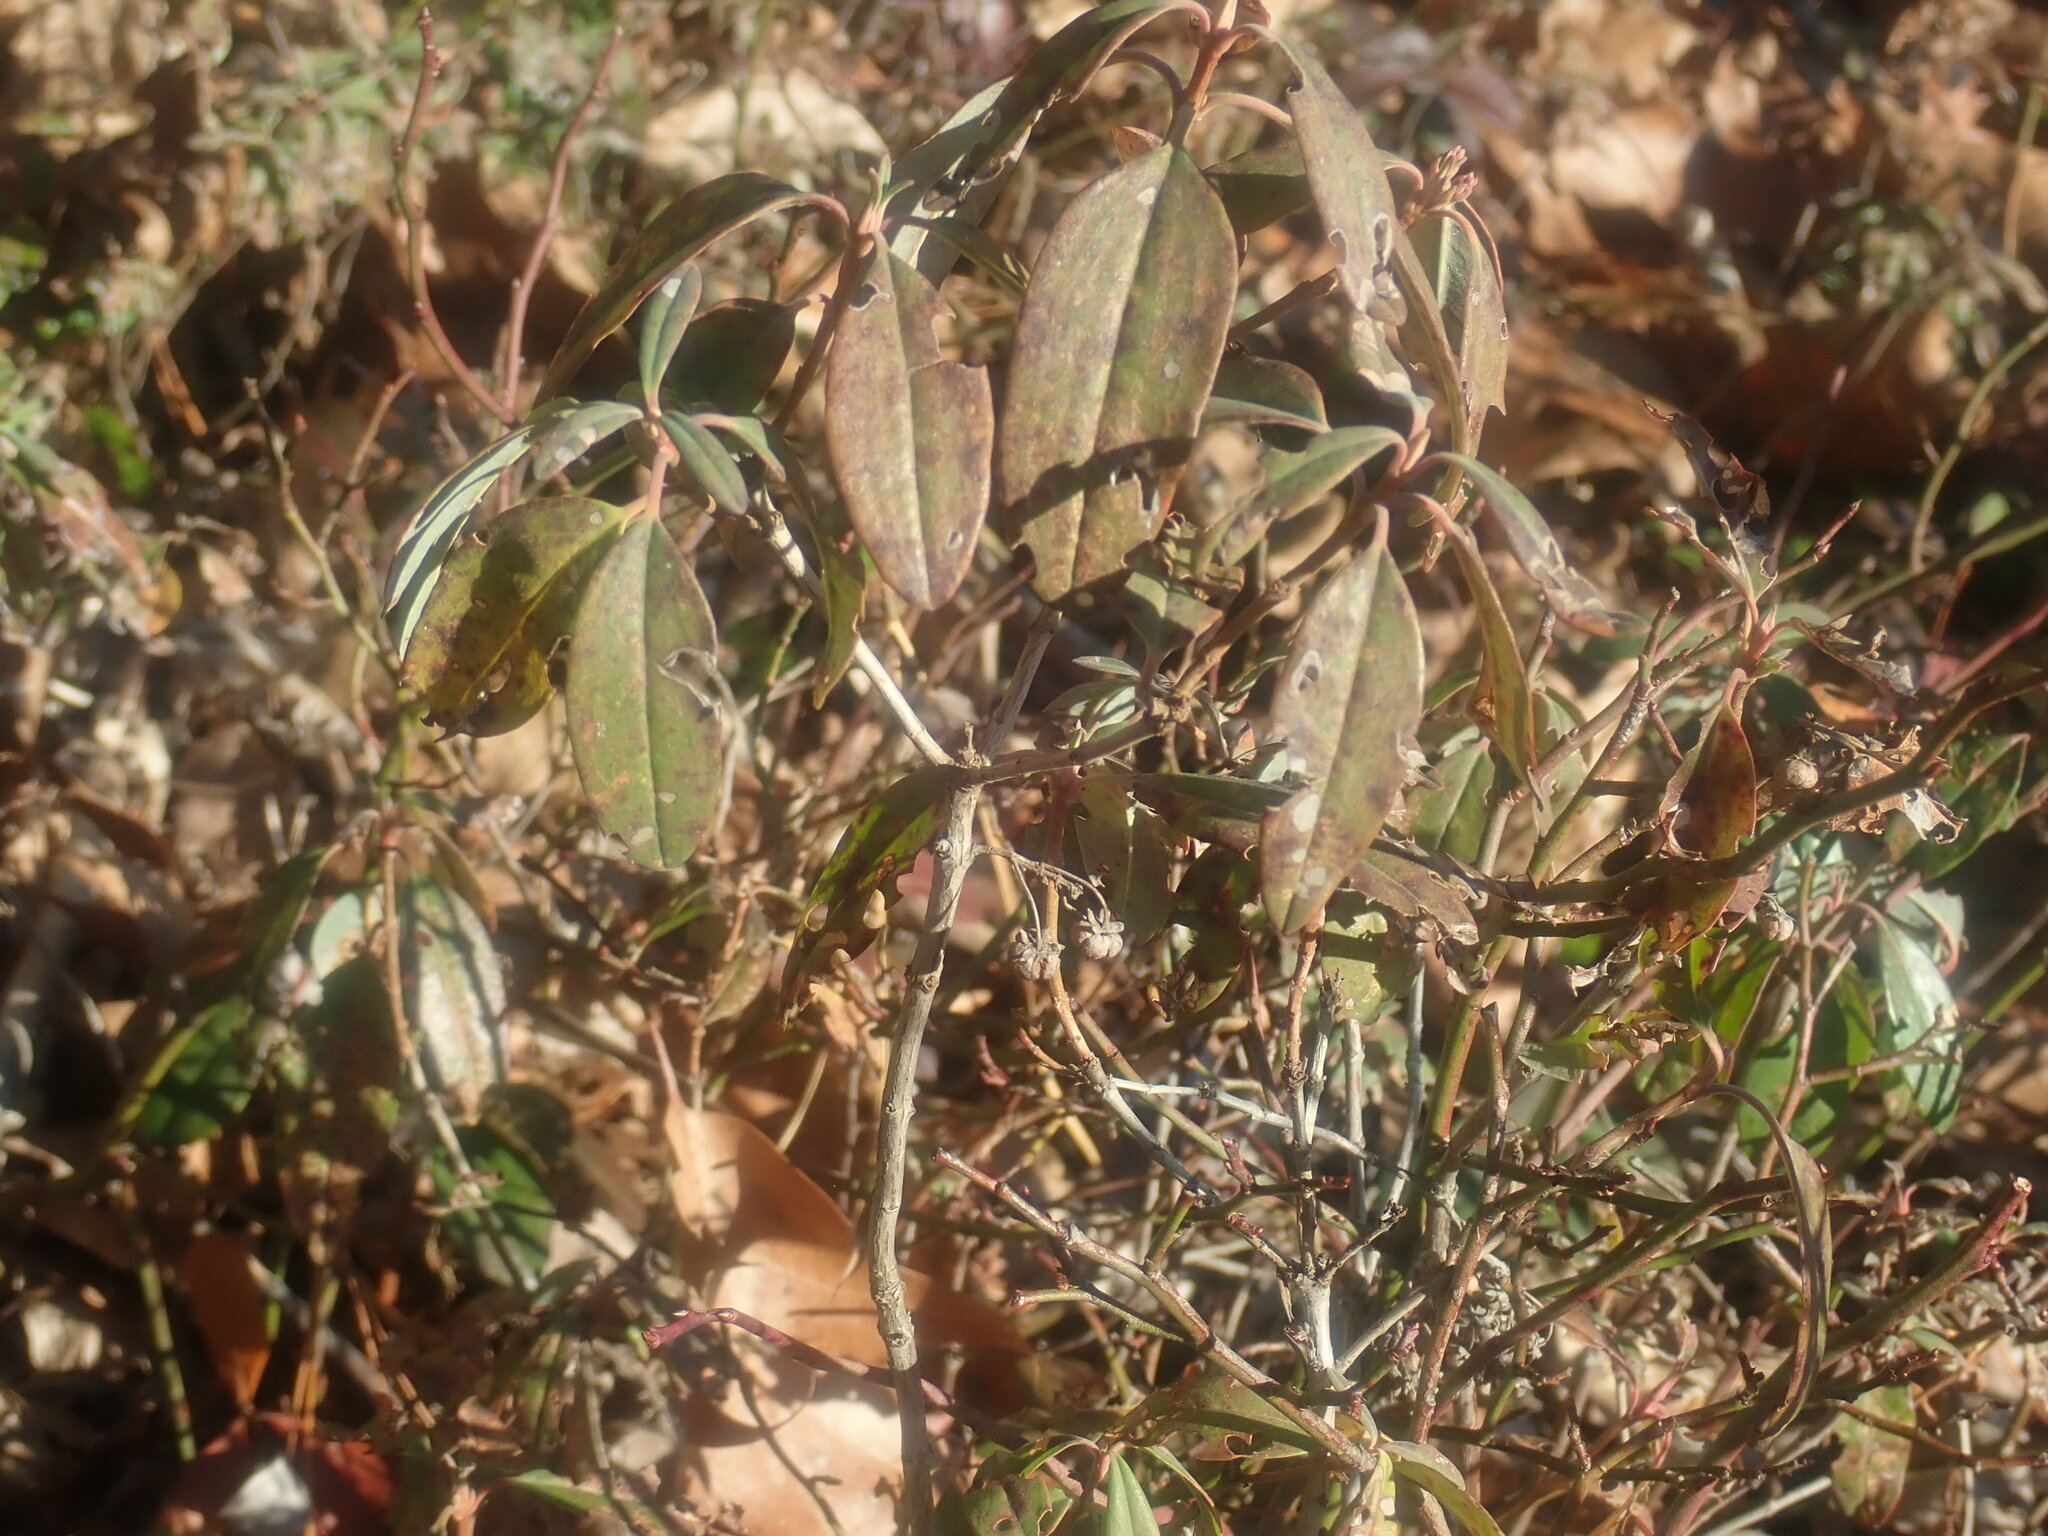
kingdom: Plantae
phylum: Tracheophyta
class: Magnoliopsida
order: Ericales
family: Ericaceae
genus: Kalmia
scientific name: Kalmia angustifolia
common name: Sheep-laurel
